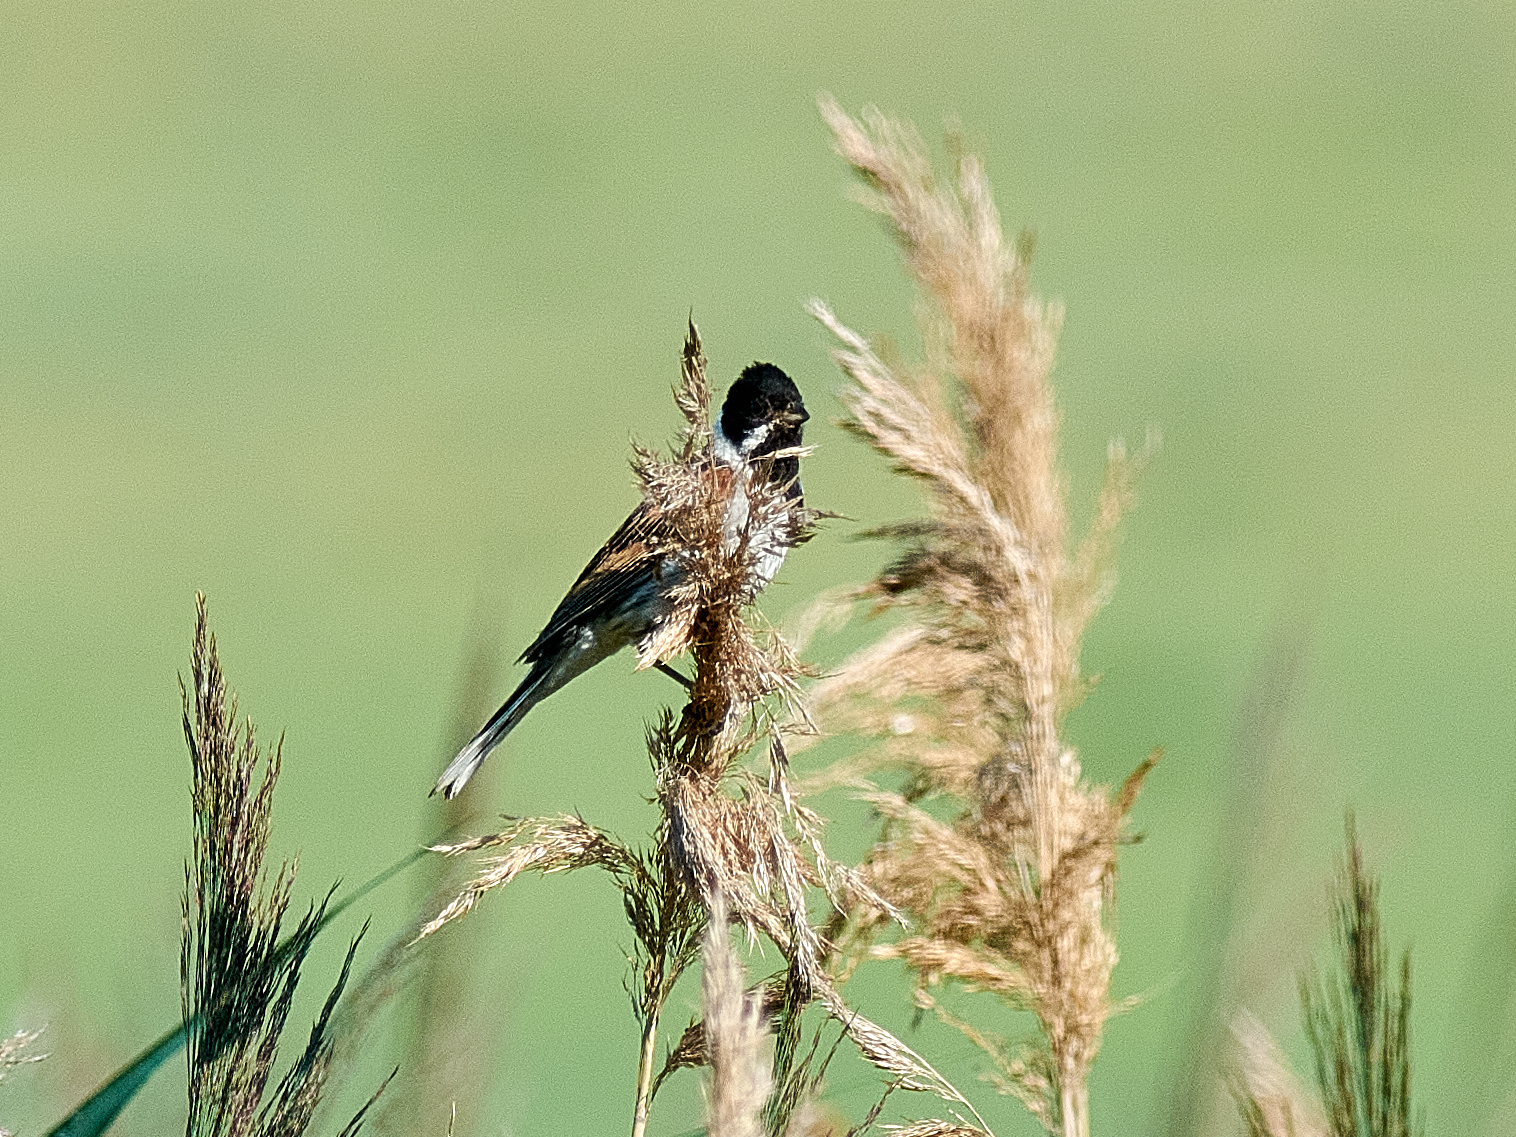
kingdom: Animalia
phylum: Chordata
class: Aves
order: Passeriformes
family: Emberizidae
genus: Emberiza
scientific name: Emberiza schoeniclus
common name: Reed bunting
